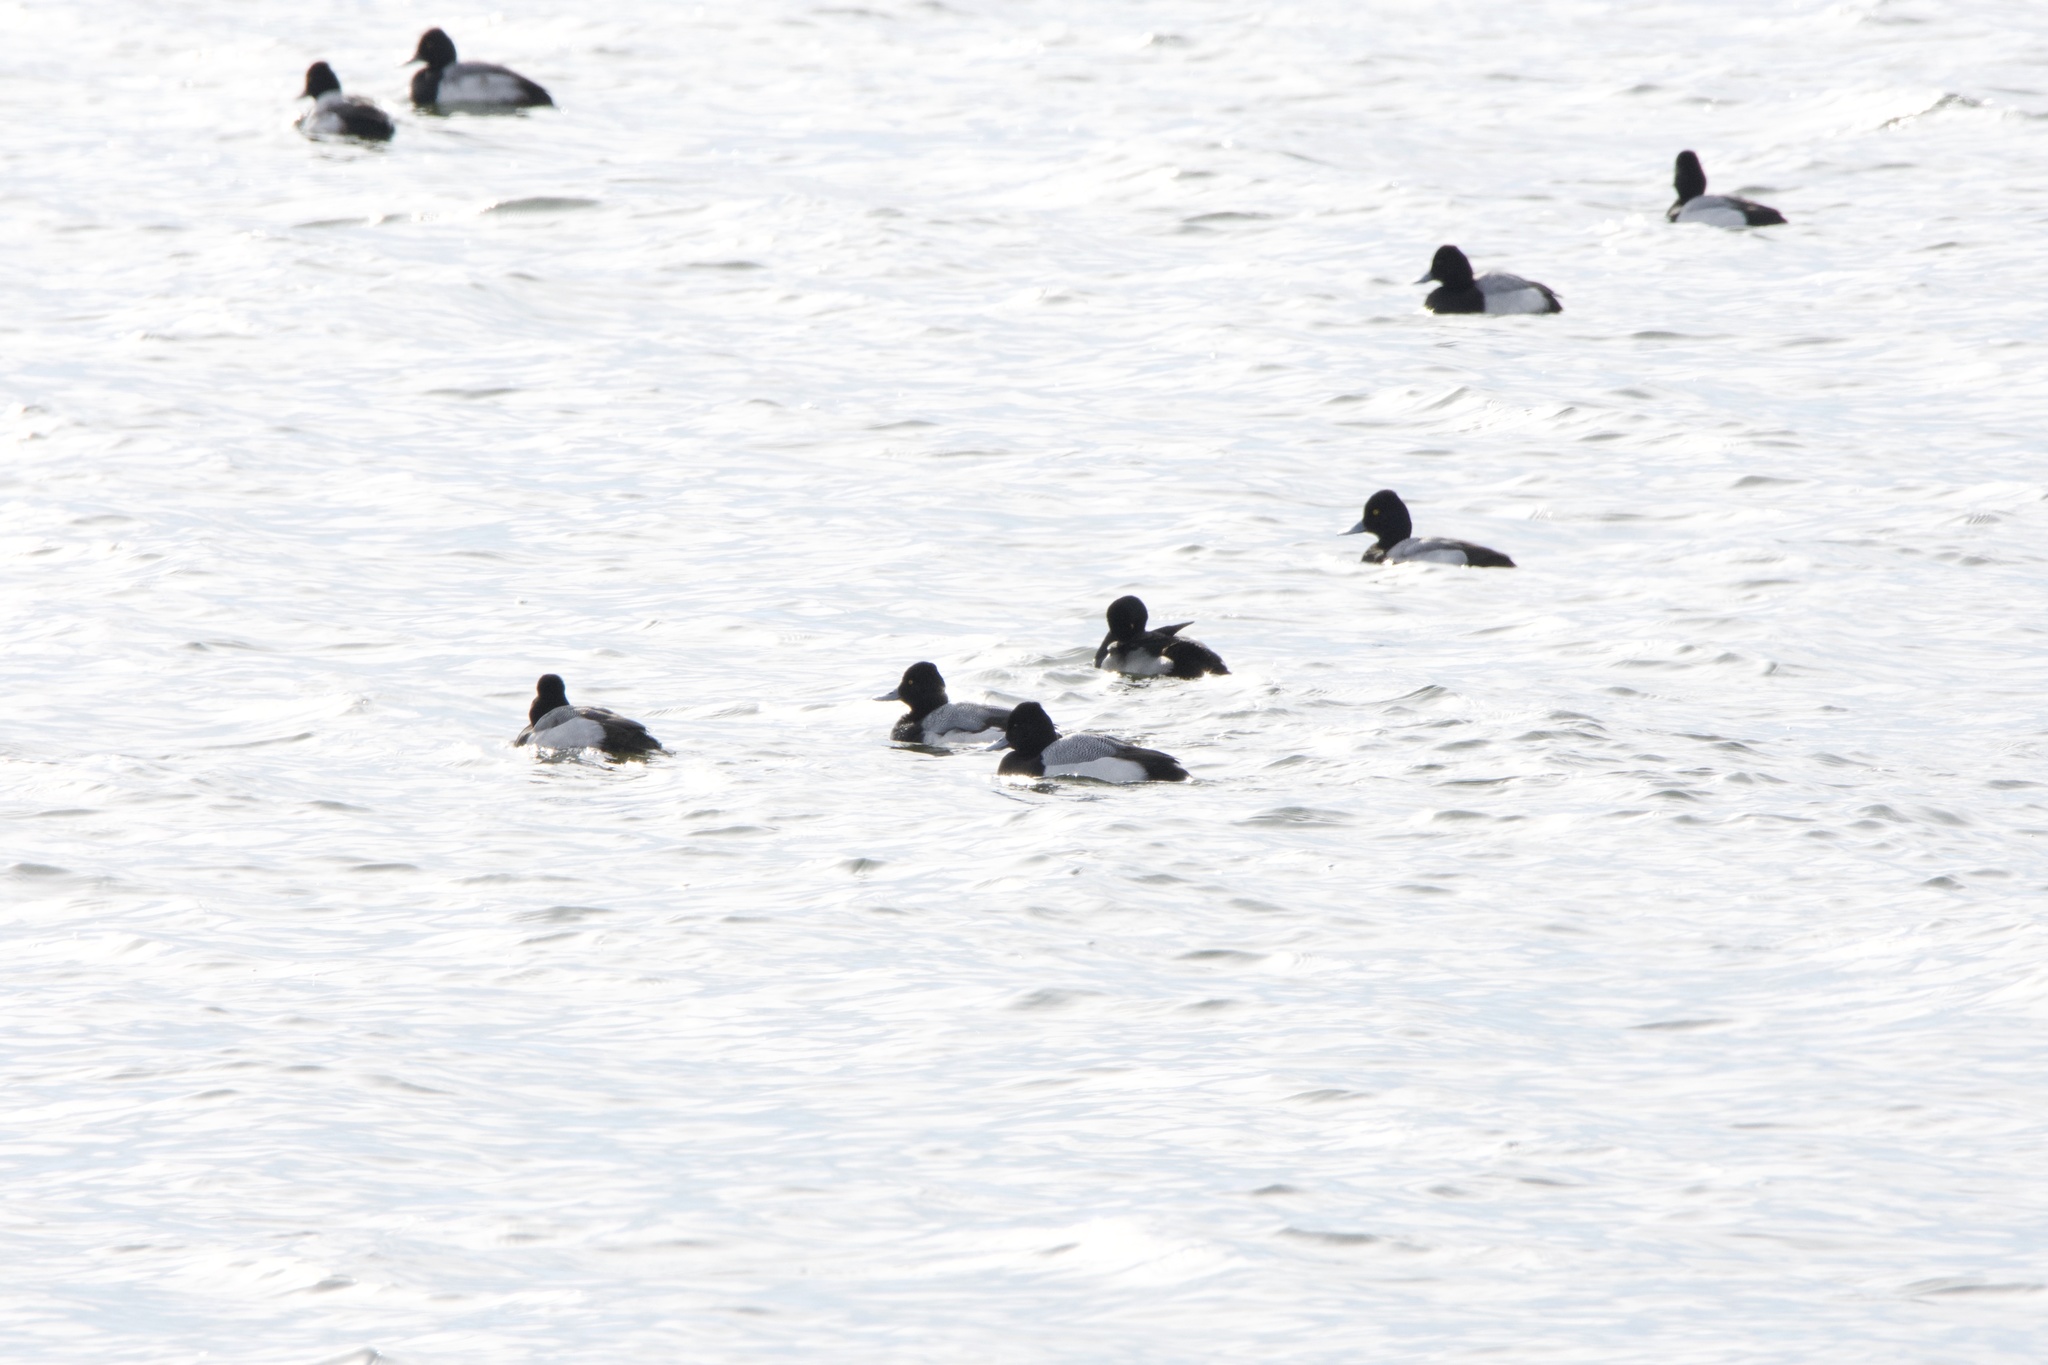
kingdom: Animalia
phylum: Chordata
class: Aves
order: Anseriformes
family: Anatidae
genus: Aythya
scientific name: Aythya affinis
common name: Lesser scaup
